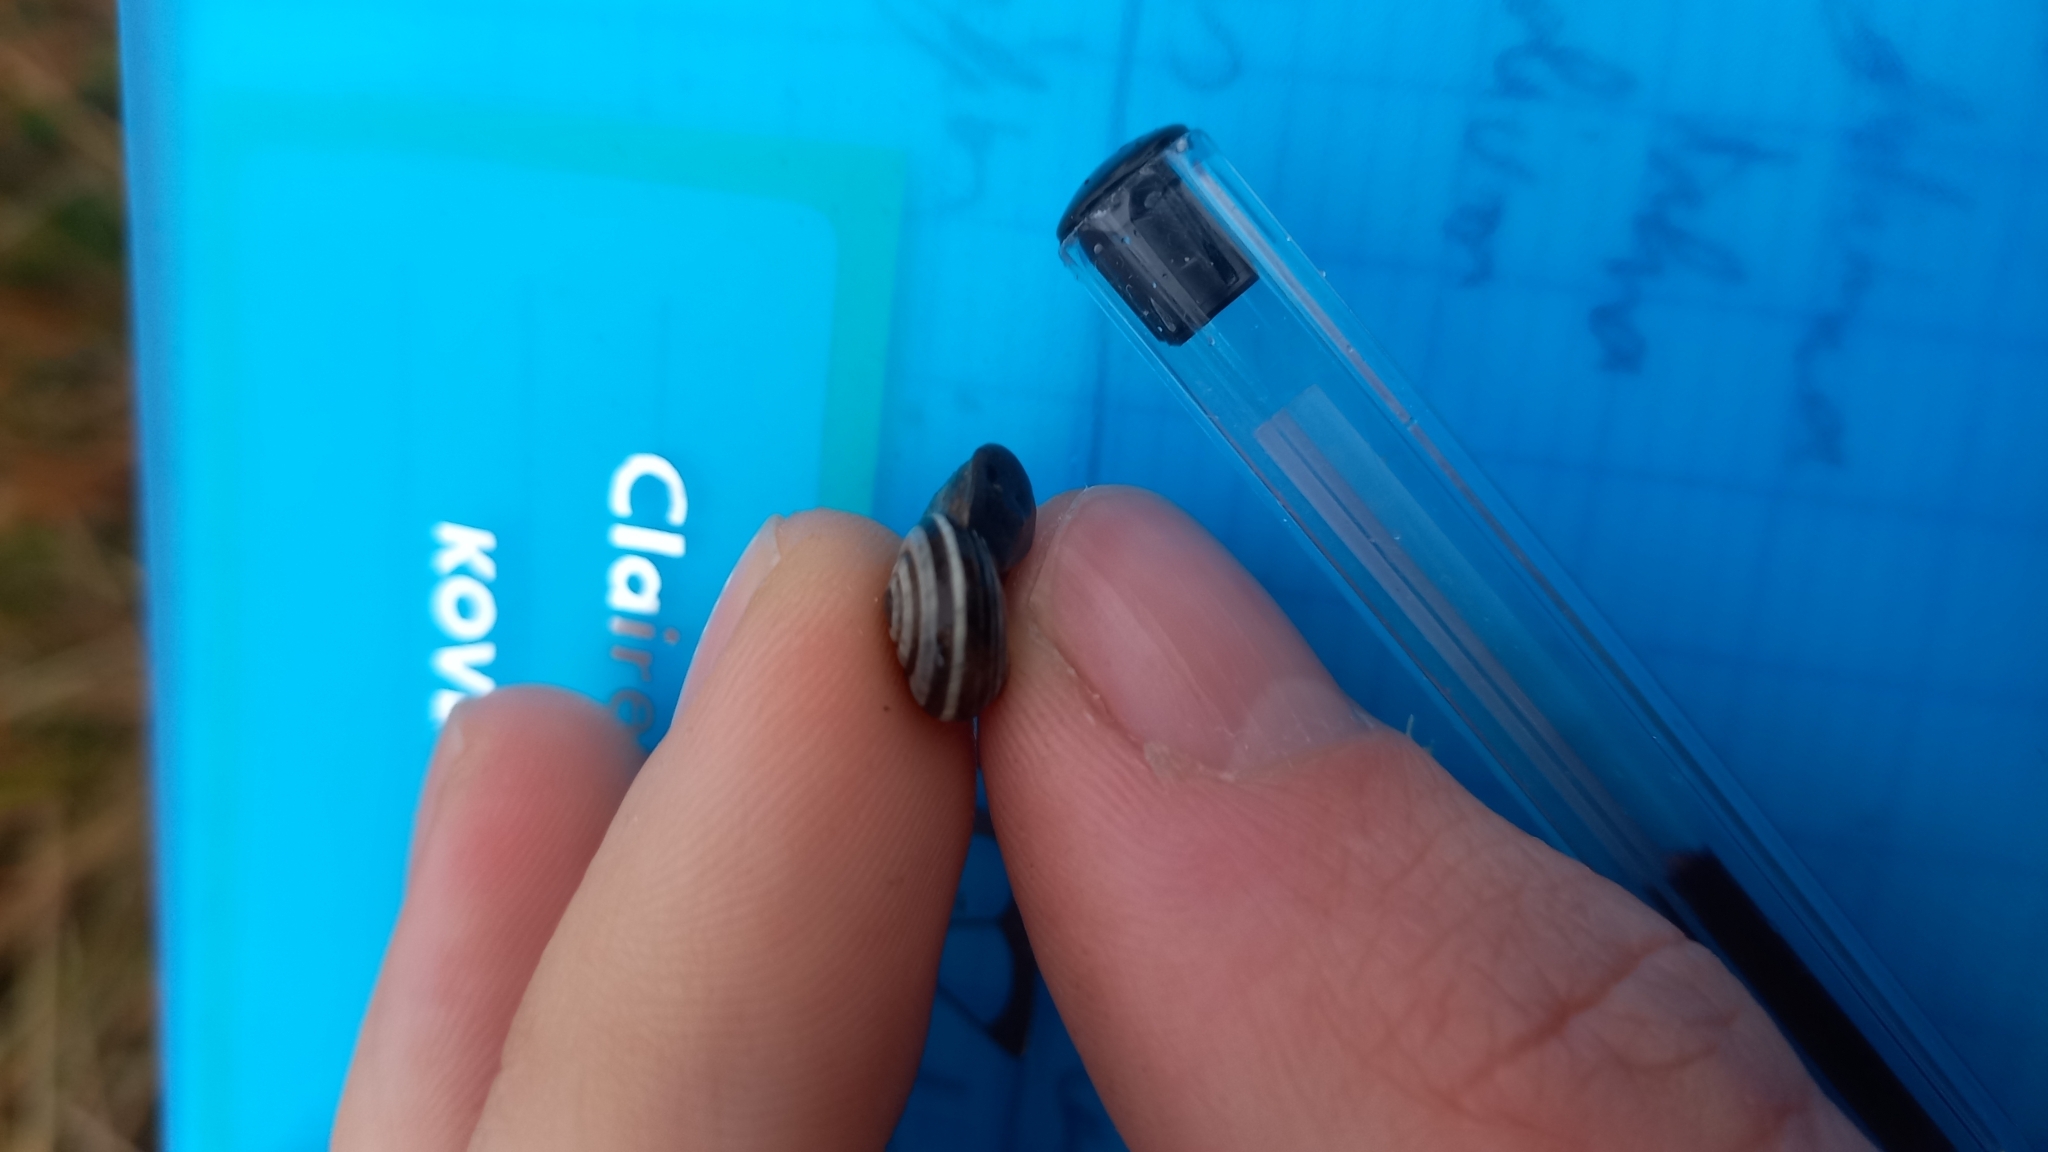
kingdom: Animalia
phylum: Mollusca
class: Gastropoda
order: Stylommatophora
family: Geomitridae
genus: Cernuella
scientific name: Cernuella neglecta
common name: Neglected dune snail
